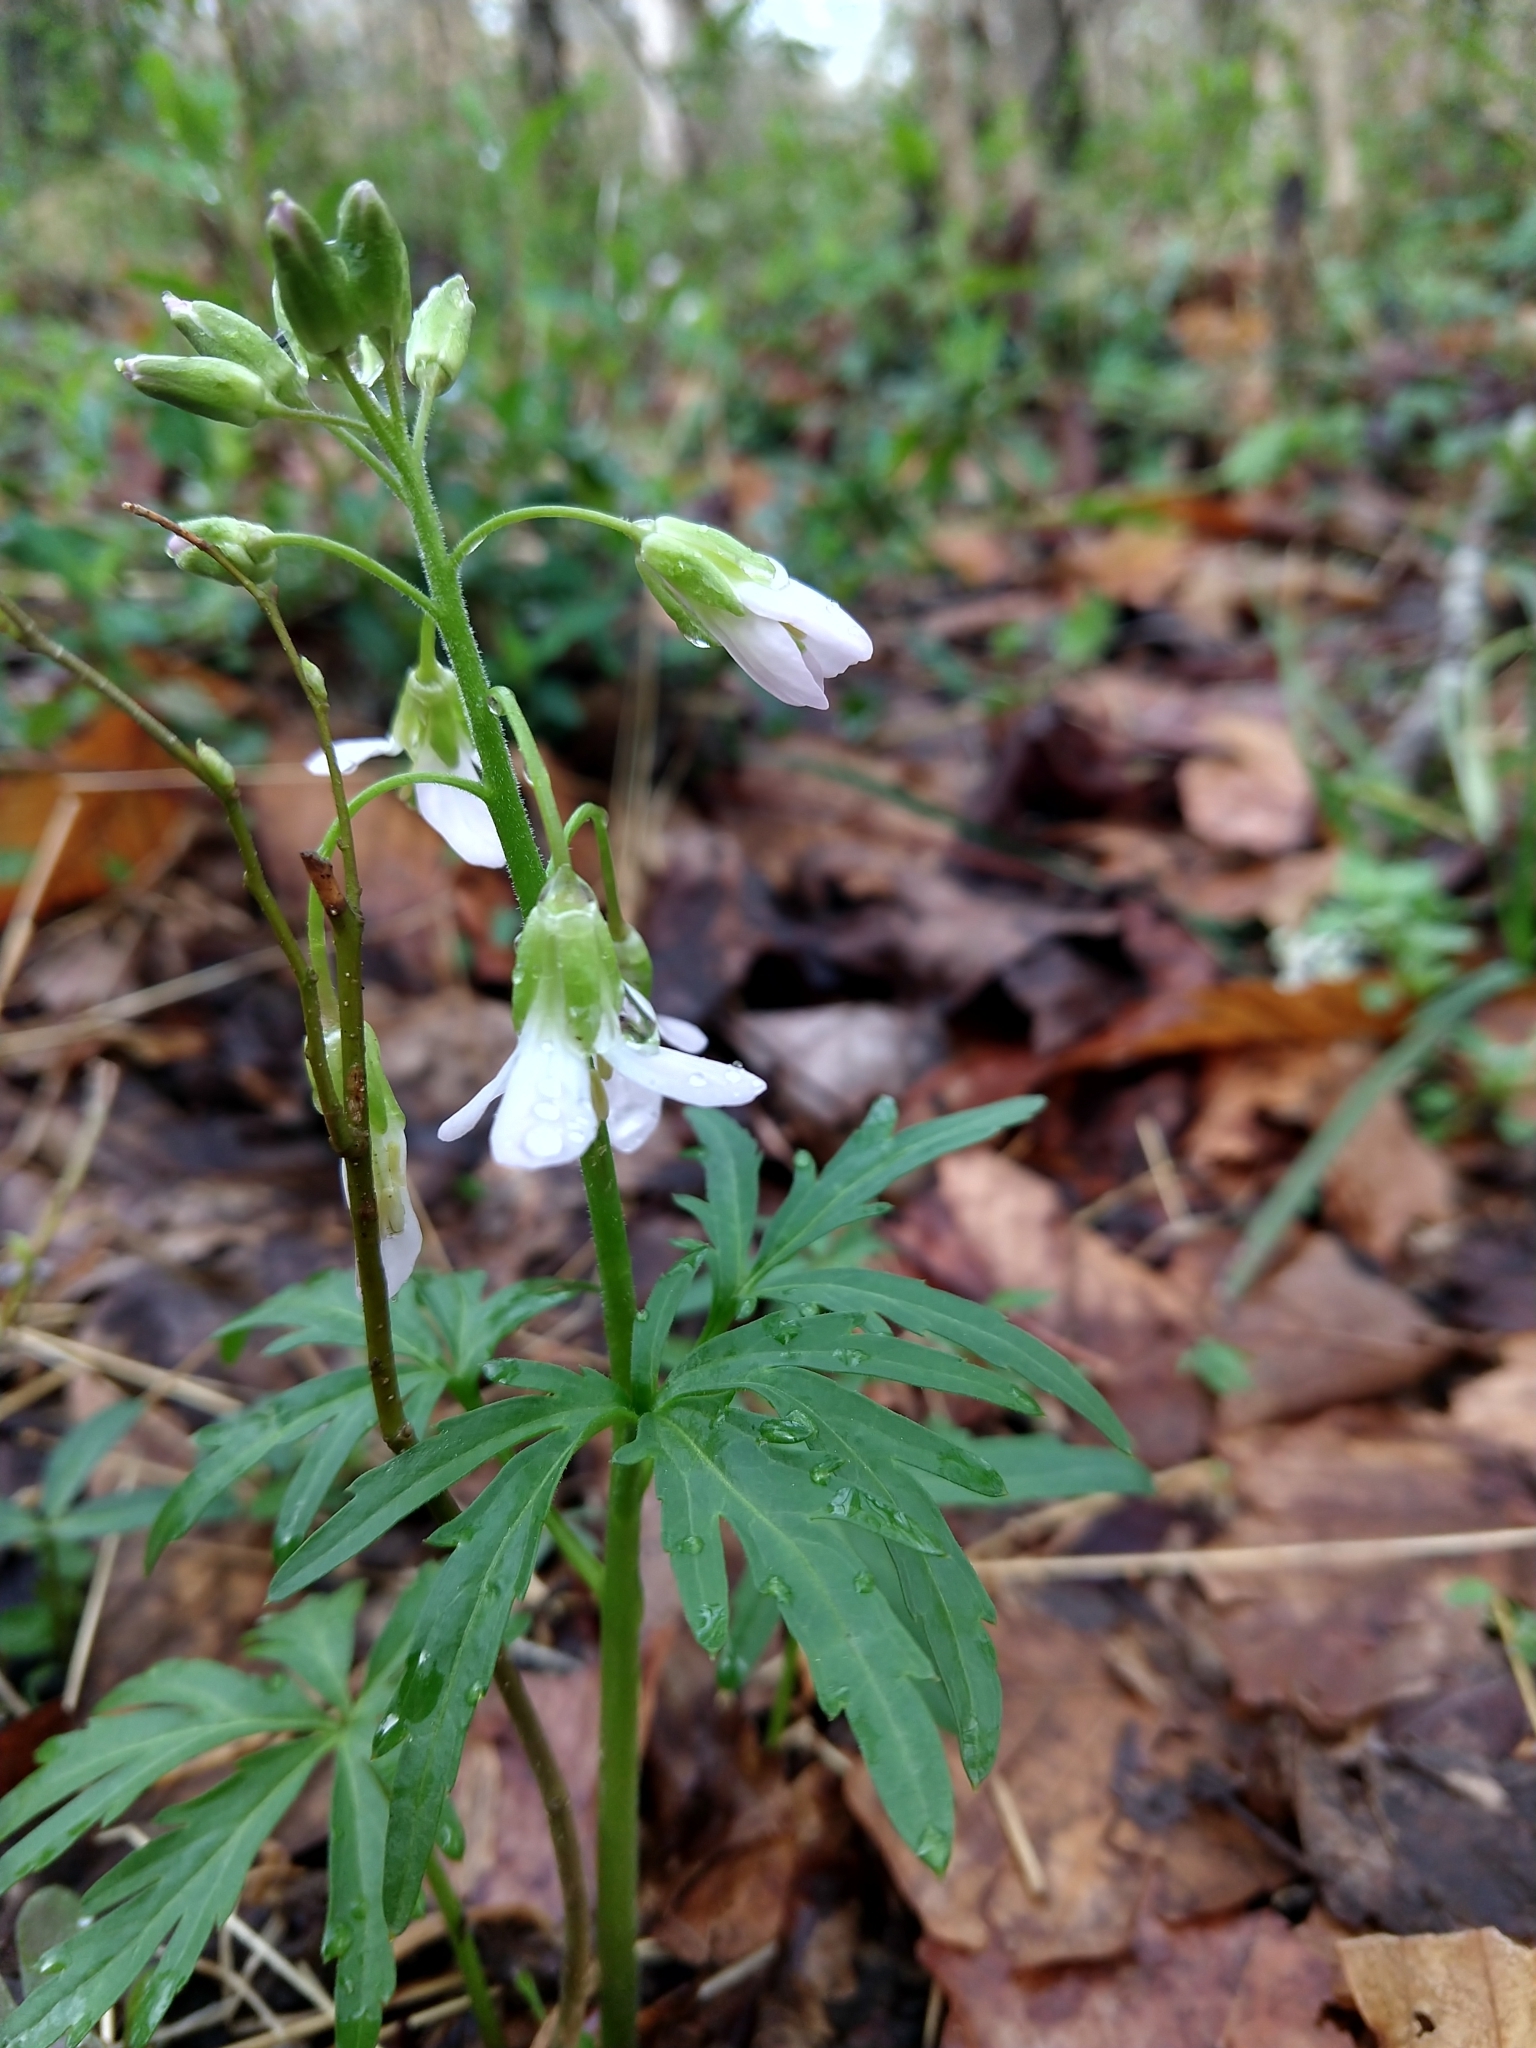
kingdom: Plantae
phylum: Tracheophyta
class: Magnoliopsida
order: Brassicales
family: Brassicaceae
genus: Cardamine
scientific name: Cardamine concatenata
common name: Cut-leaf toothcup
